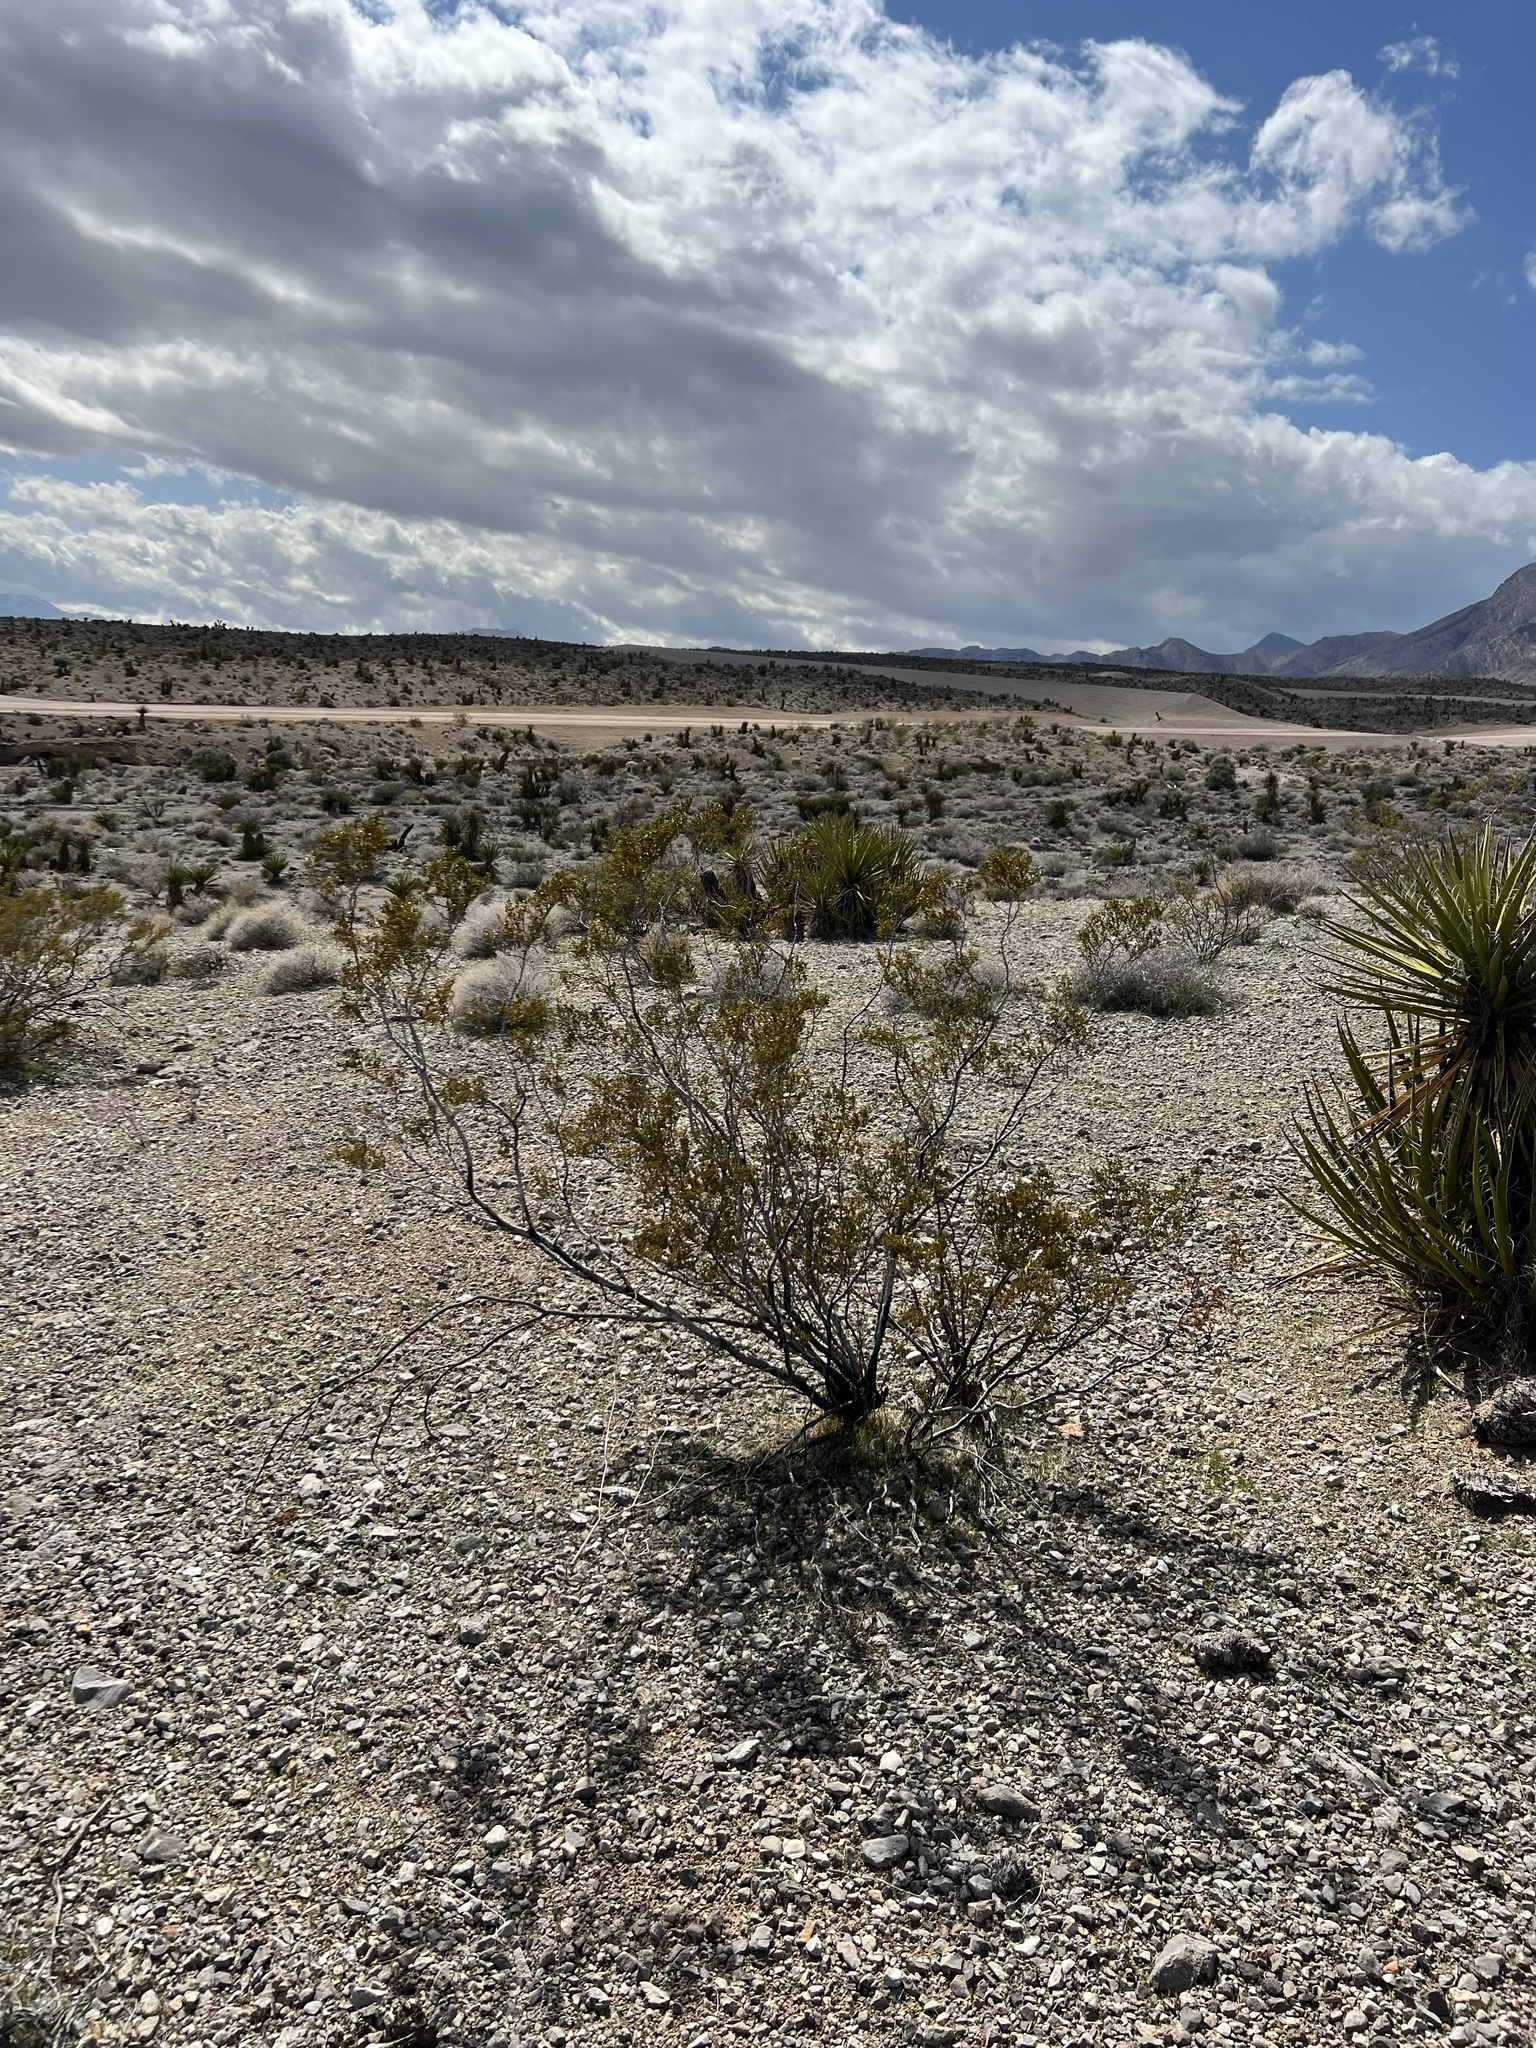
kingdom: Plantae
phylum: Tracheophyta
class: Magnoliopsida
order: Zygophyllales
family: Zygophyllaceae
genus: Larrea
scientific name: Larrea tridentata
